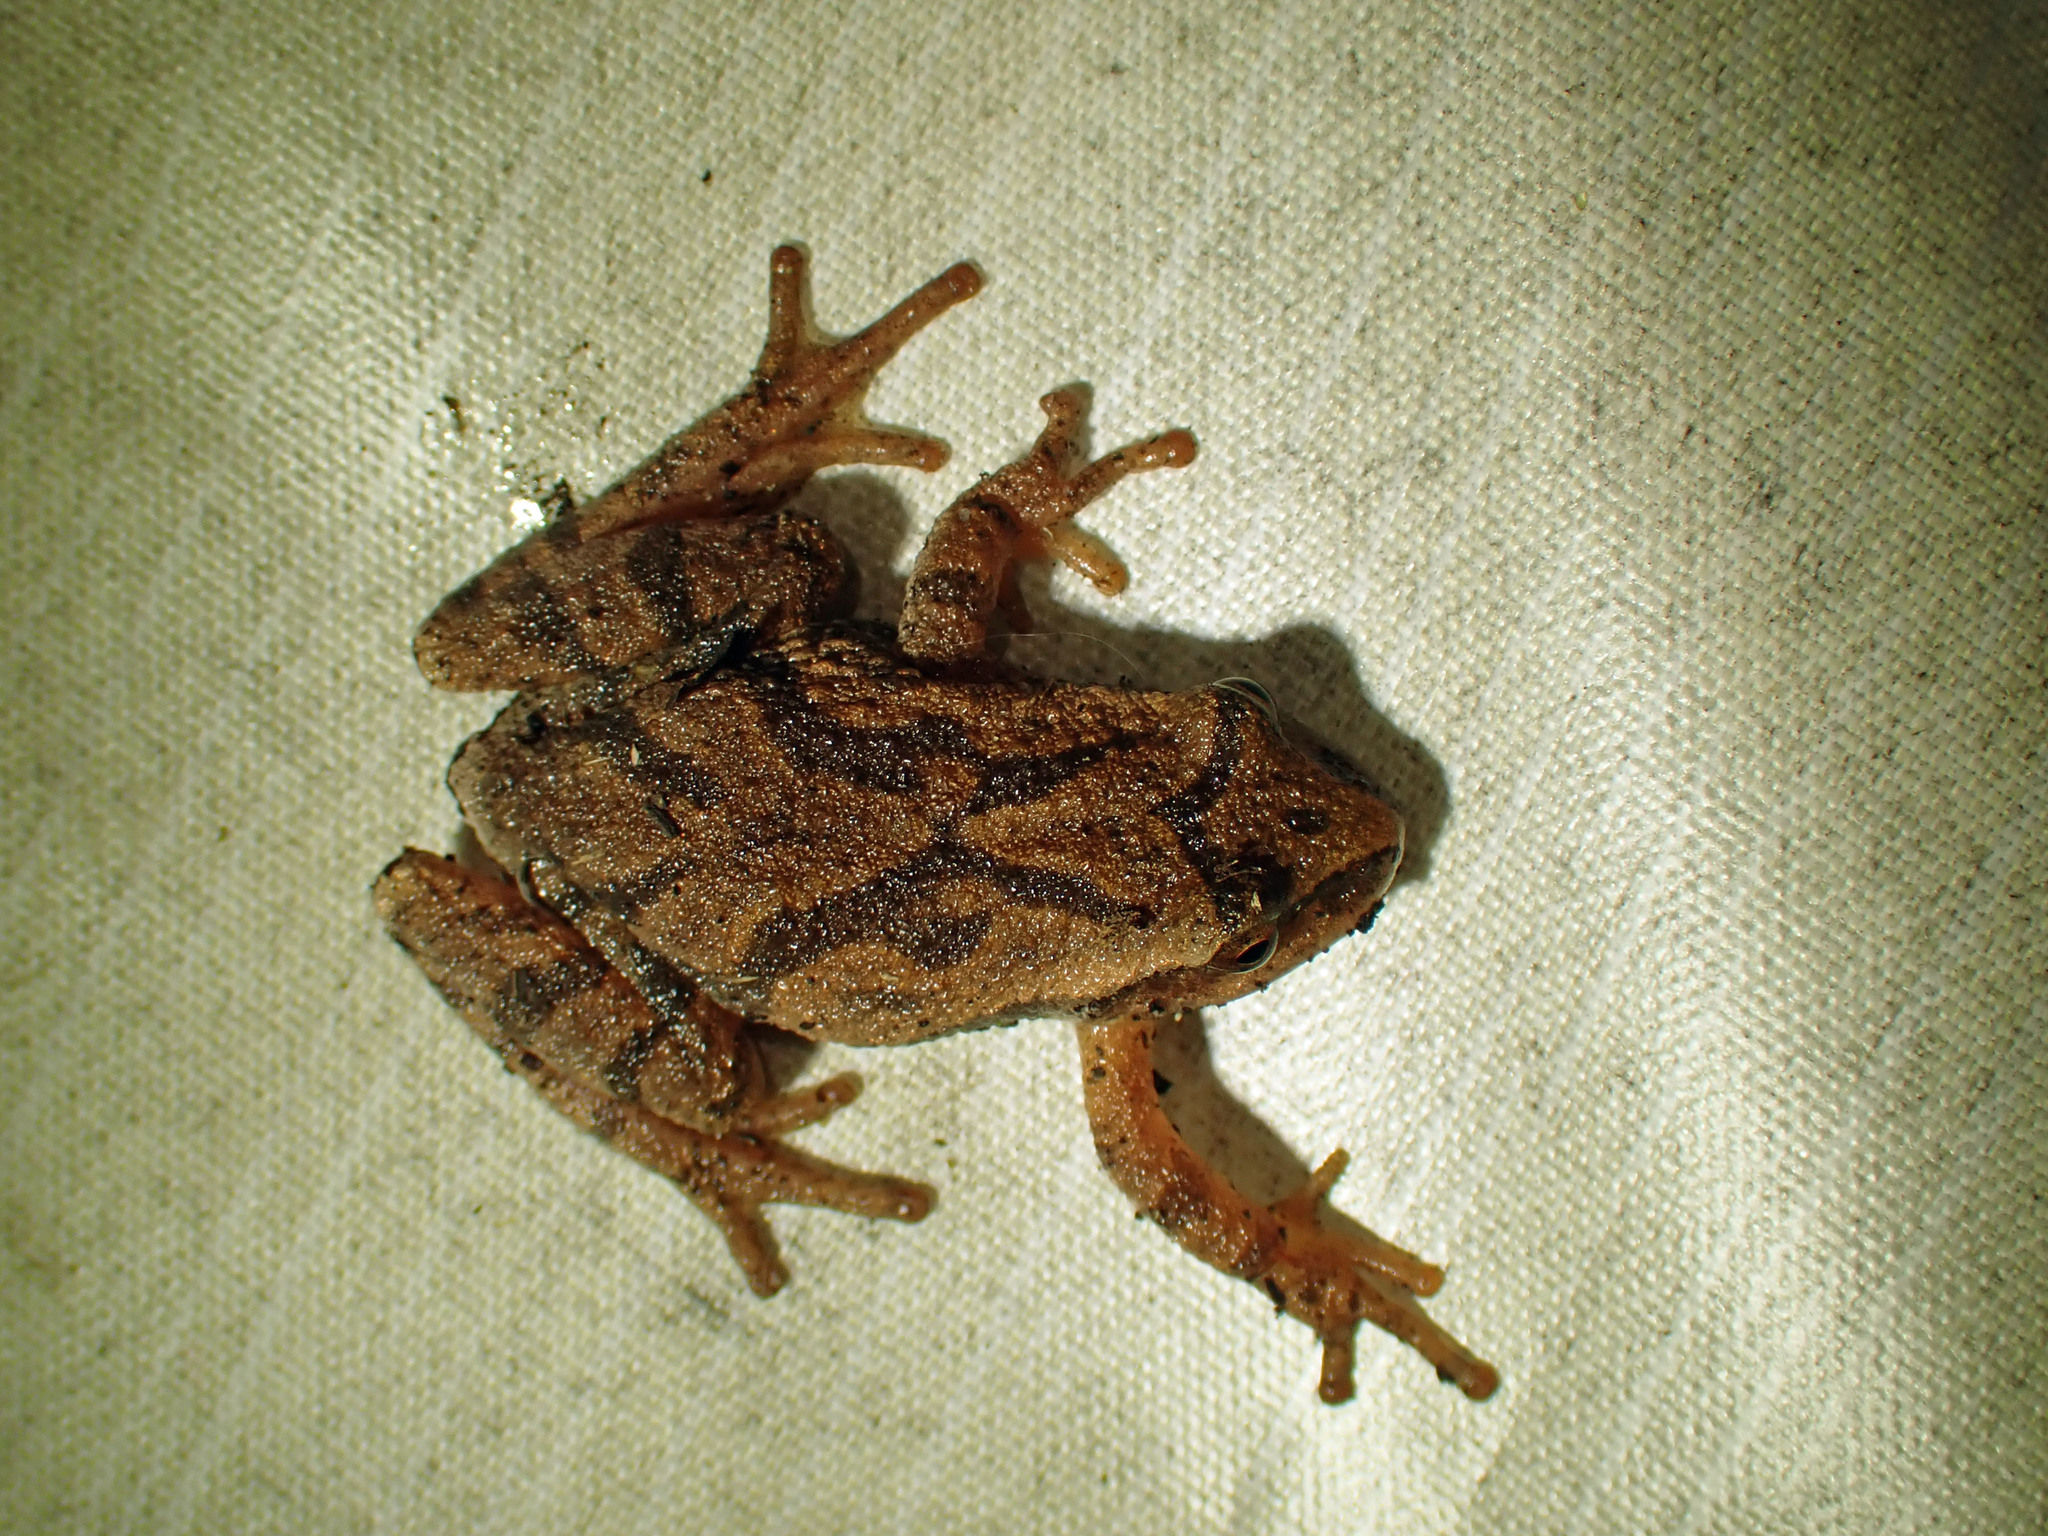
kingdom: Animalia
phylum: Chordata
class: Amphibia
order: Anura
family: Hylidae
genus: Pseudacris
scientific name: Pseudacris crucifer
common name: Spring peeper
